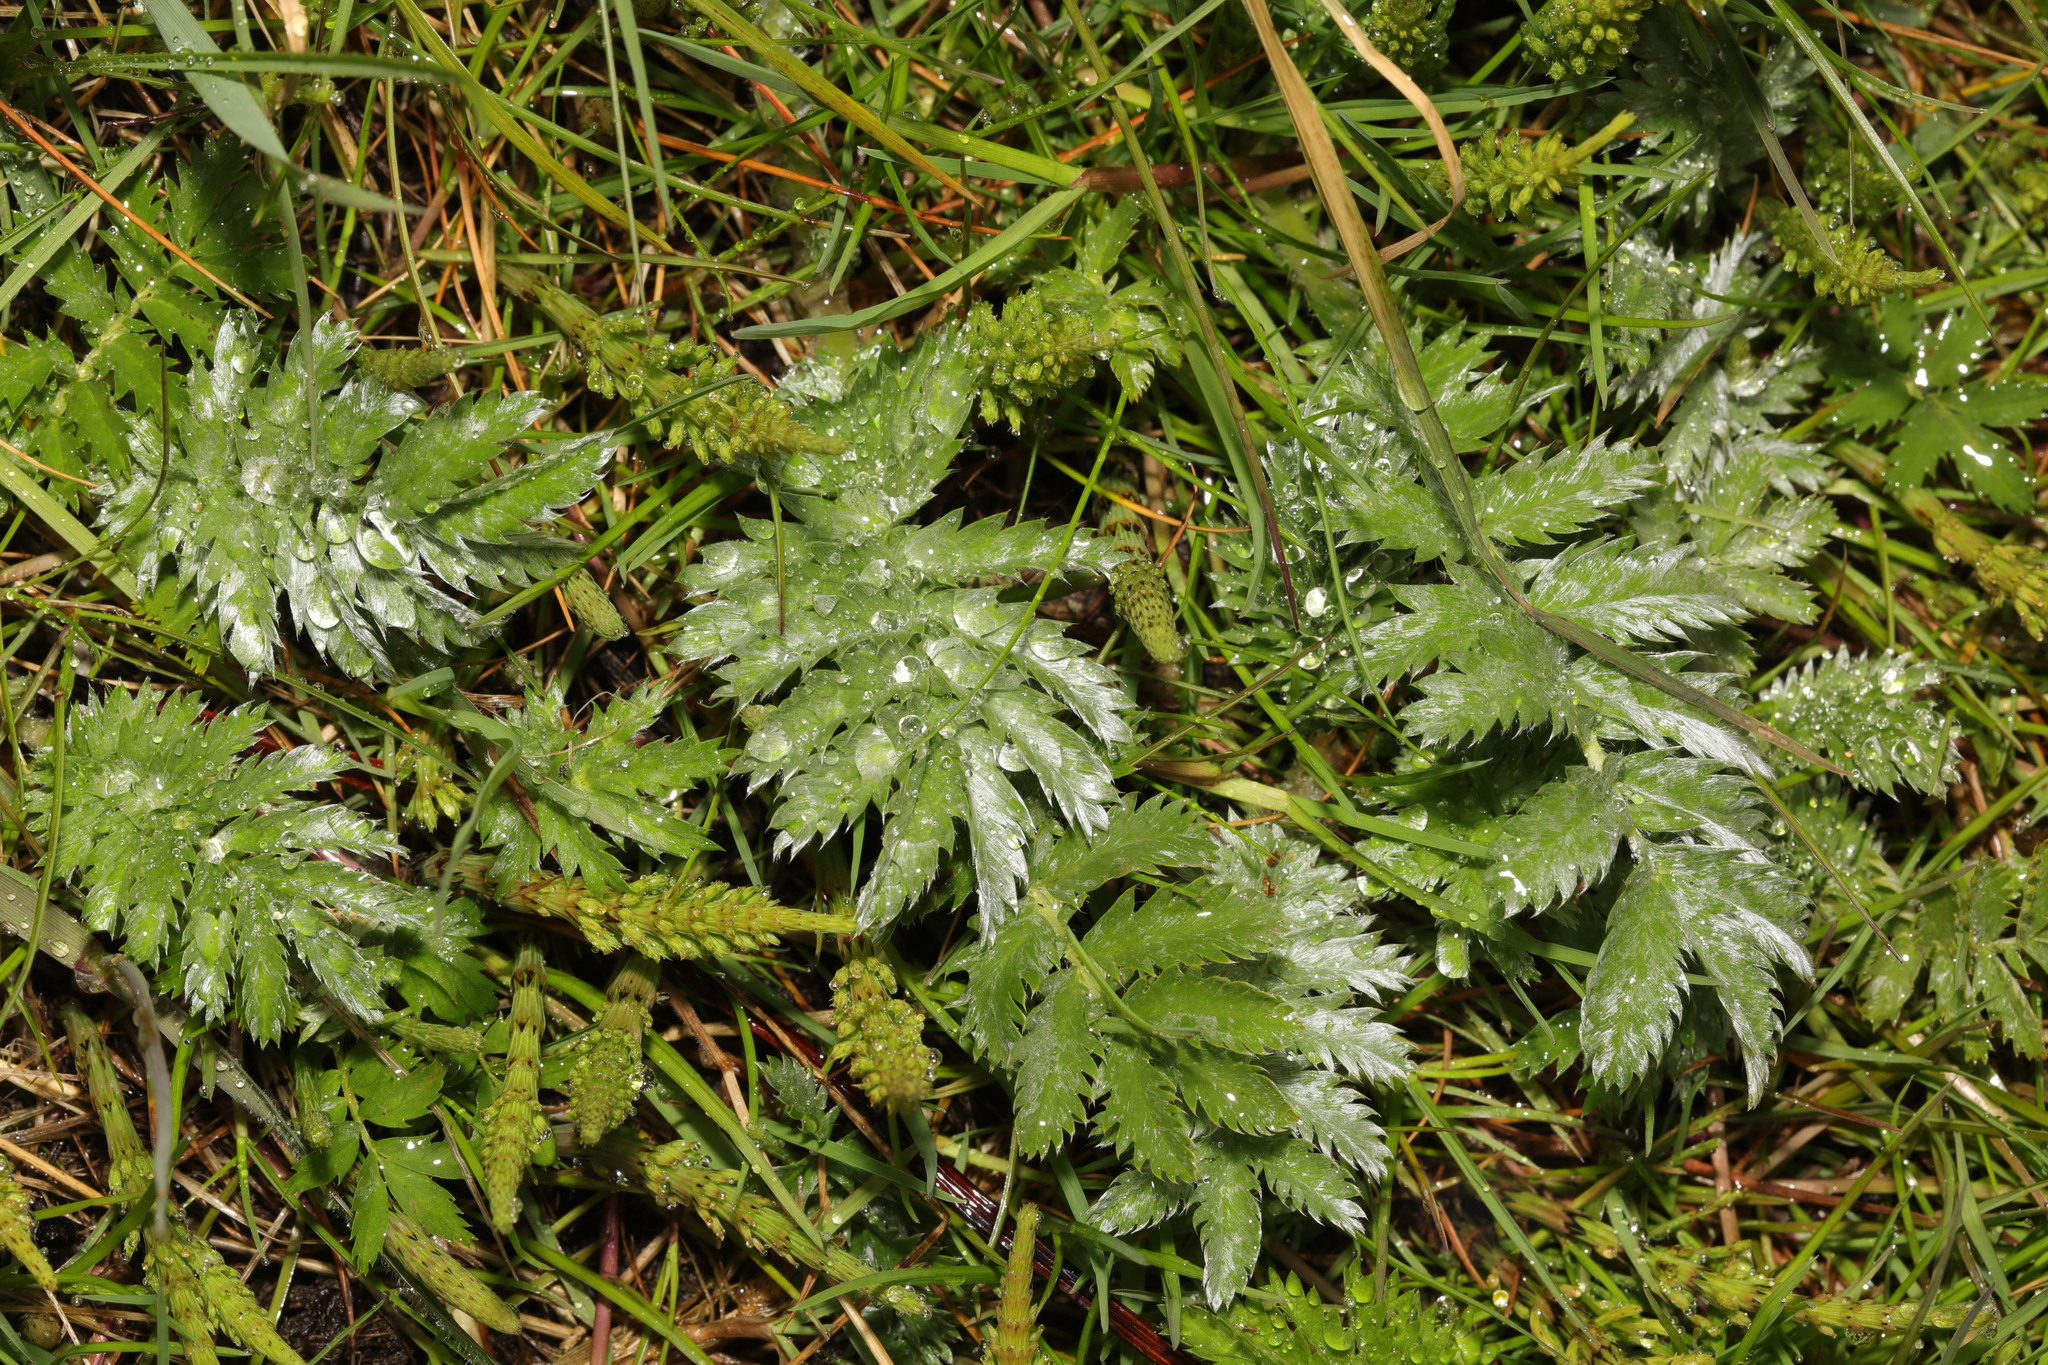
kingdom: Plantae
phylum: Tracheophyta
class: Magnoliopsida
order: Rosales
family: Rosaceae
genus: Argentina
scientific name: Argentina anserina
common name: Common silverweed
